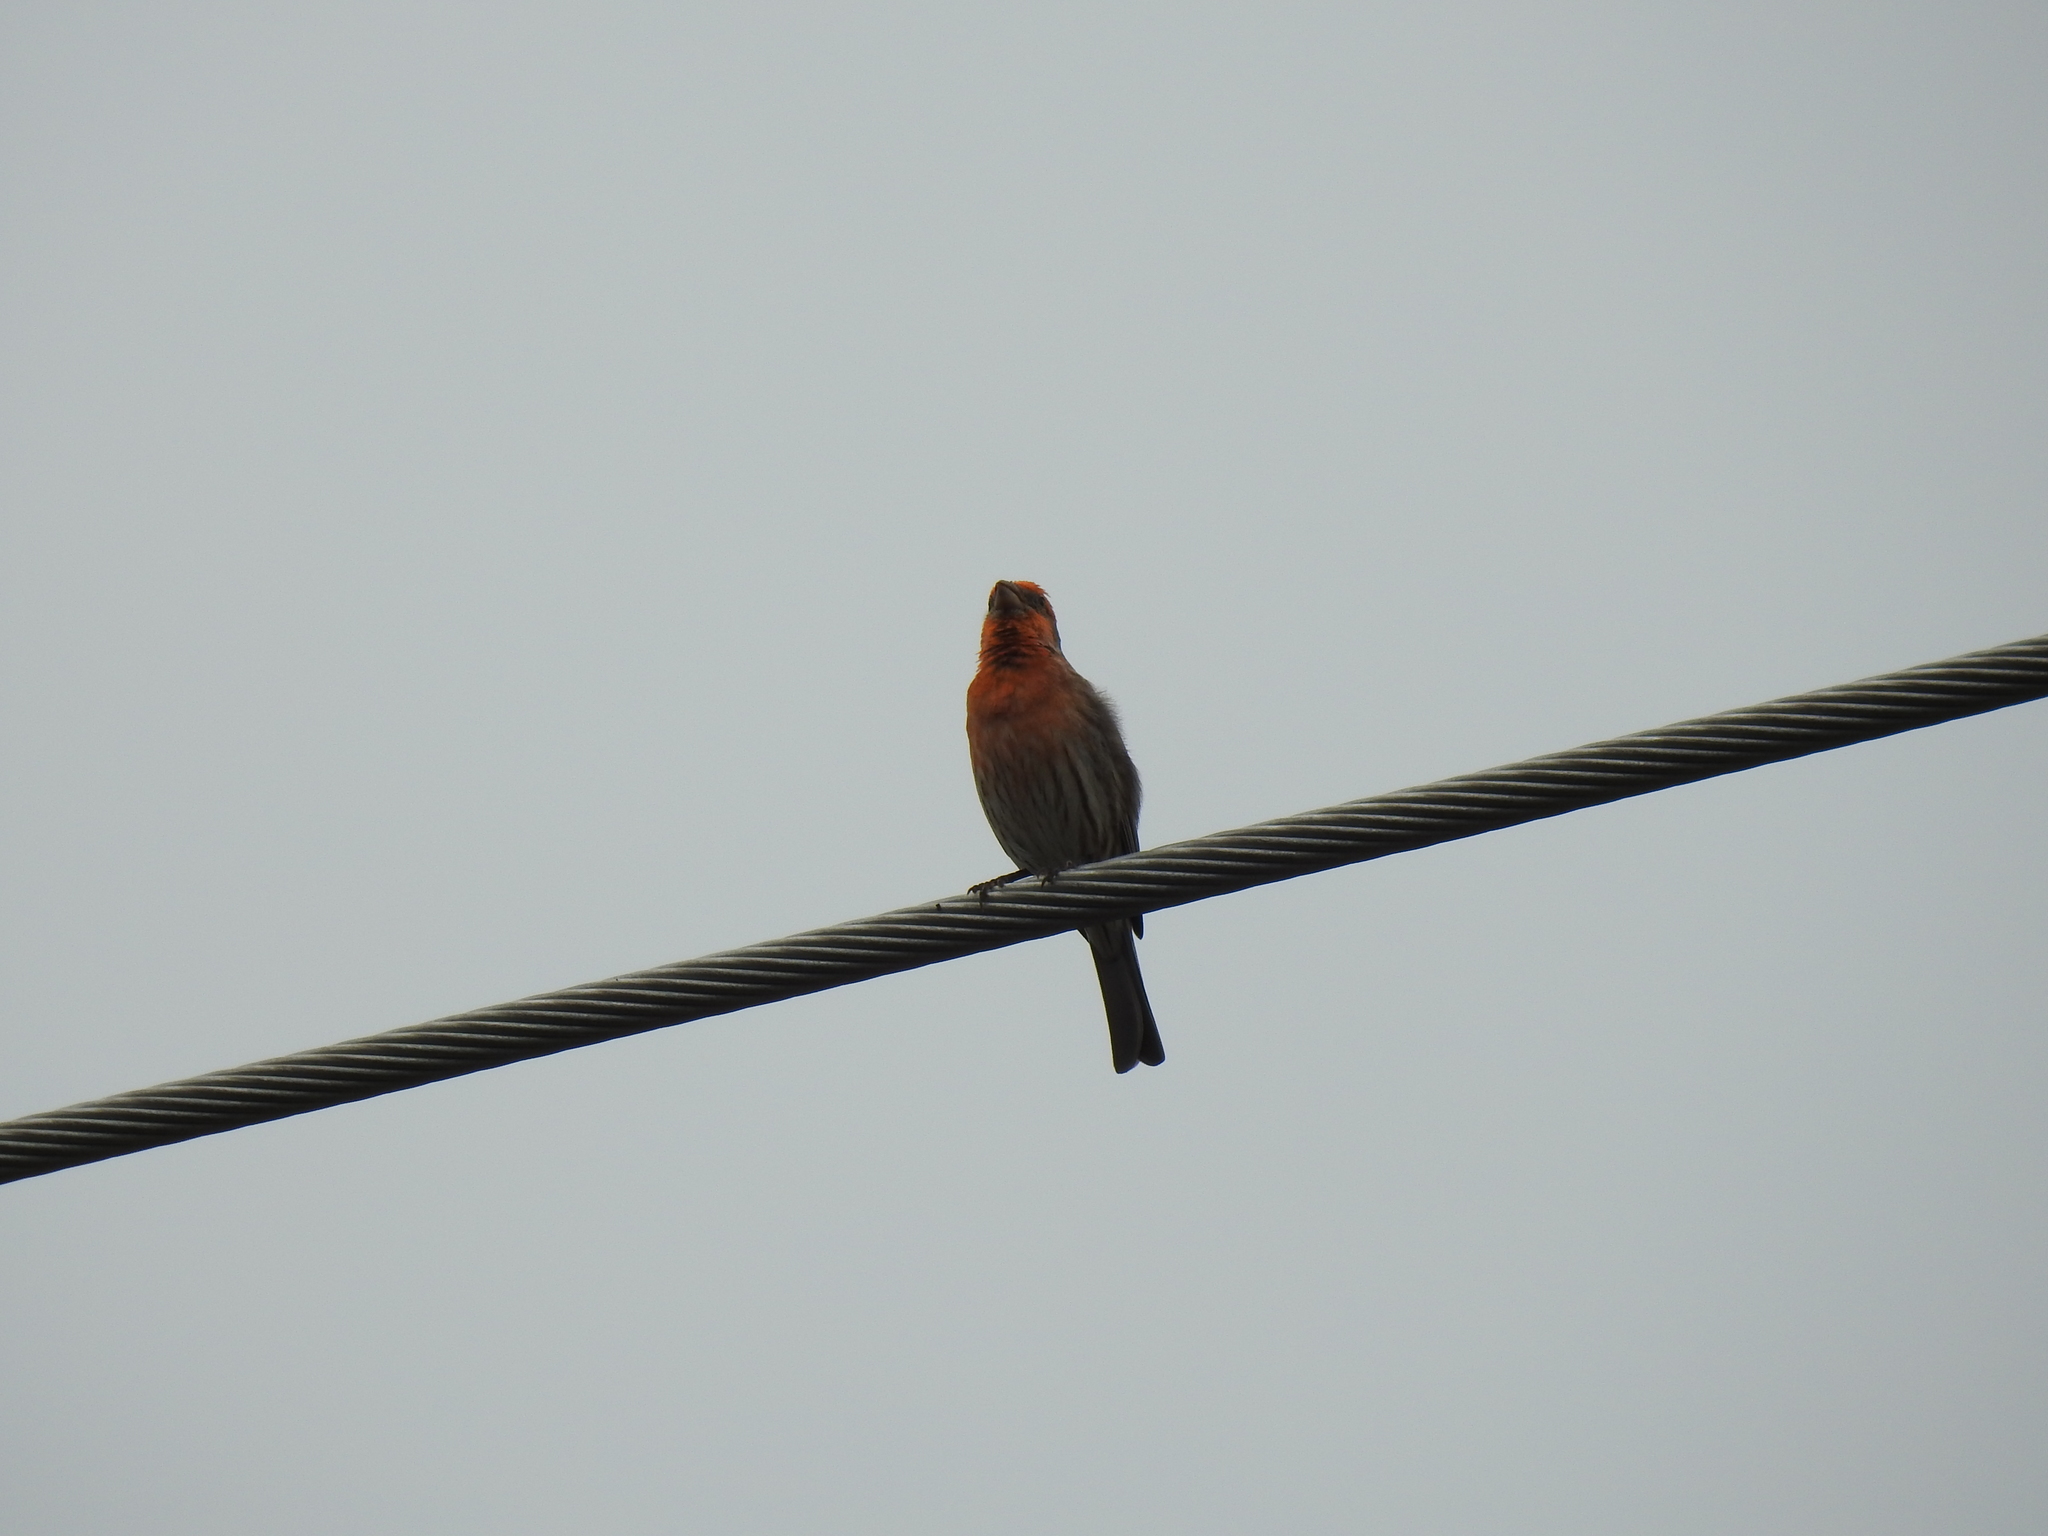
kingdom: Animalia
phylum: Chordata
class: Aves
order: Passeriformes
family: Fringillidae
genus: Haemorhous
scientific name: Haemorhous mexicanus
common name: House finch
